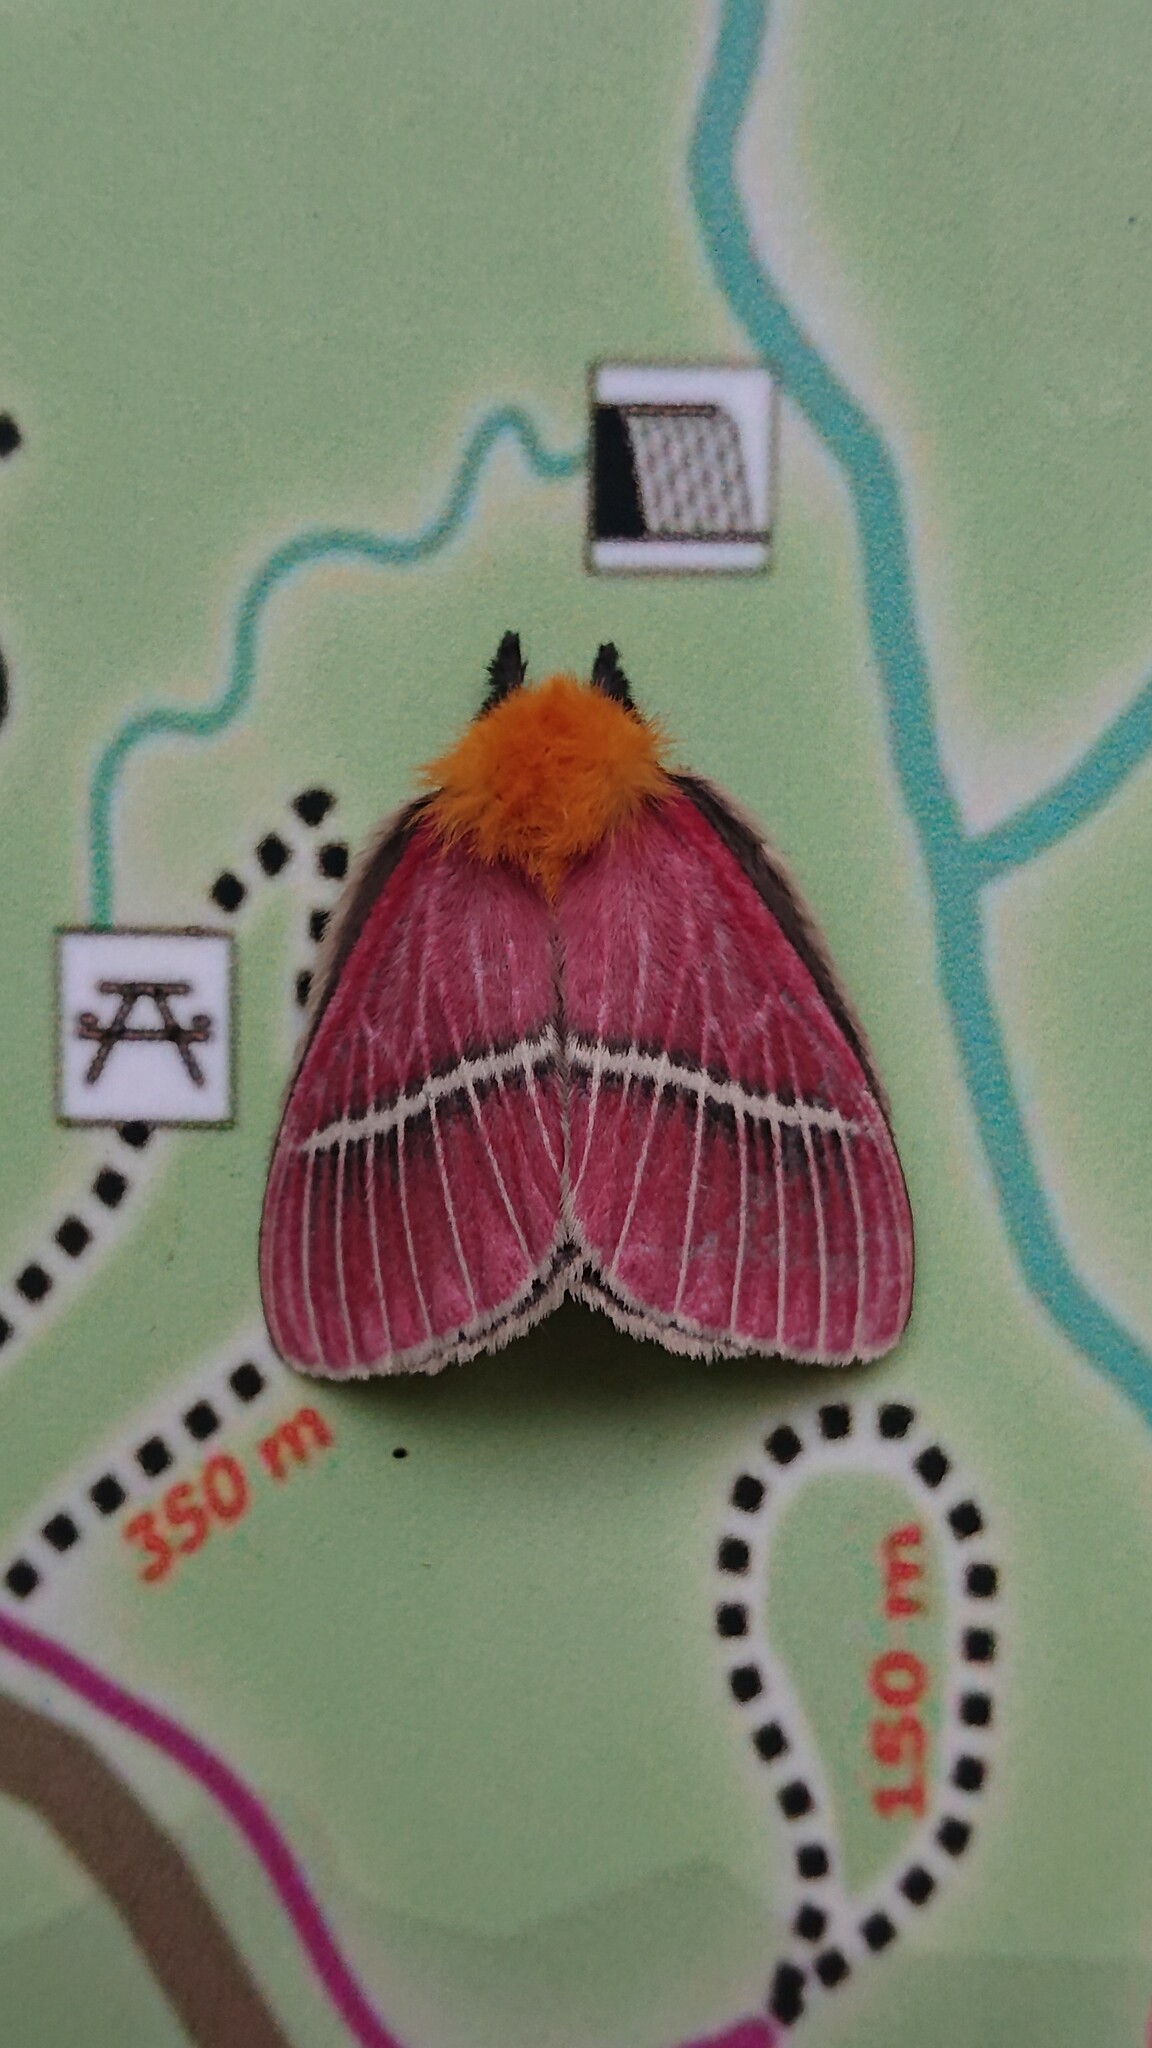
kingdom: Animalia
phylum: Arthropoda
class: Insecta
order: Lepidoptera
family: Saturniidae
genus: Pseudodirphia
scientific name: Pseudodirphia menander
